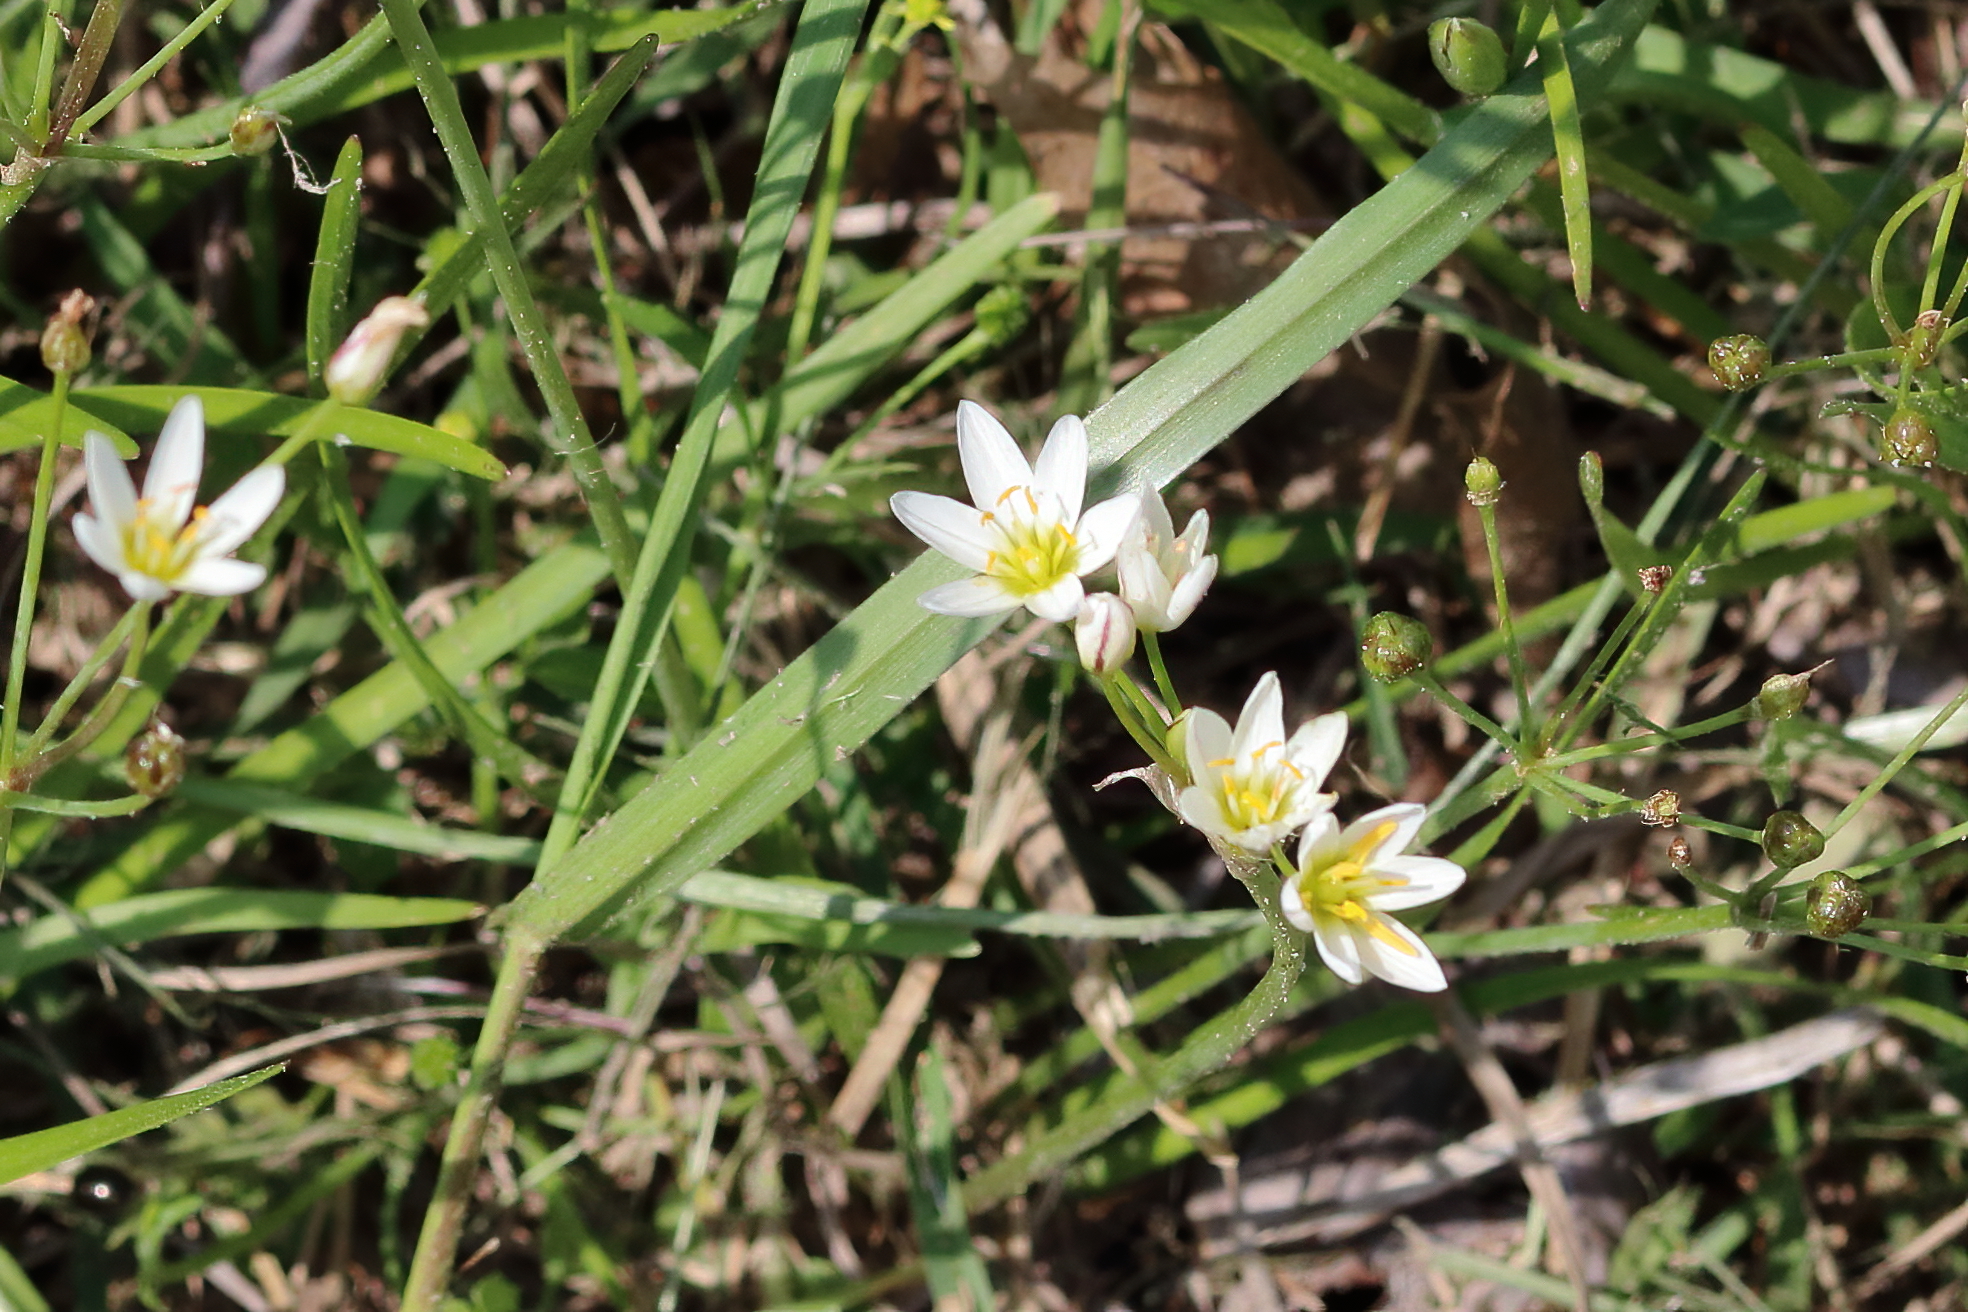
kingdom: Plantae
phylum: Tracheophyta
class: Liliopsida
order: Asparagales
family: Amaryllidaceae
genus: Nothoscordum
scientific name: Nothoscordum bivalve
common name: Crow-poison
